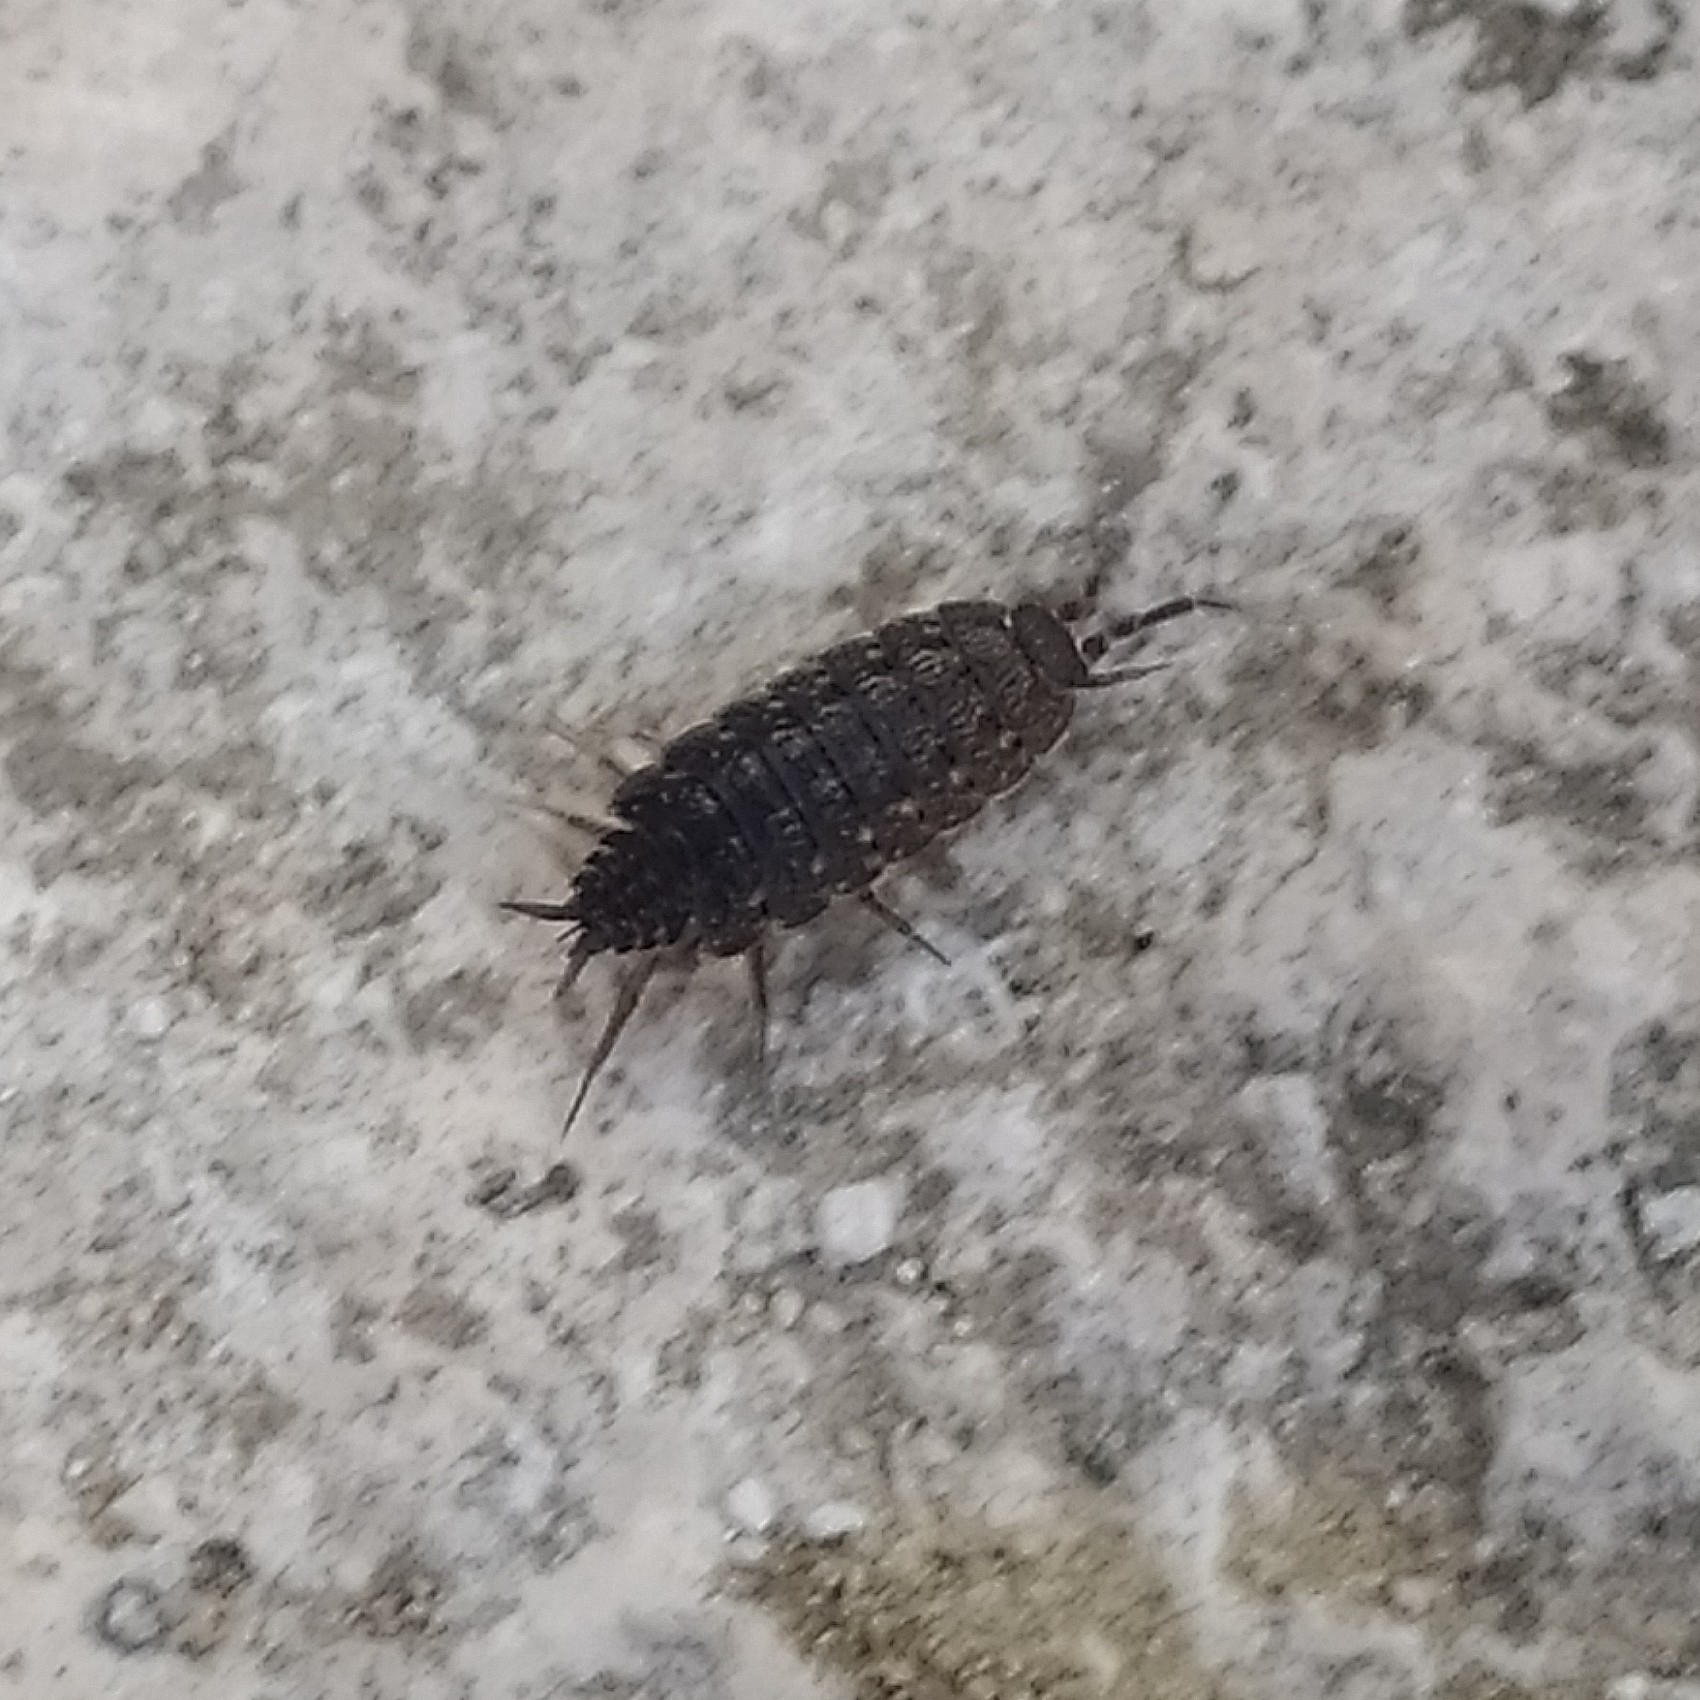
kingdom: Animalia
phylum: Arthropoda
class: Malacostraca
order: Isopoda
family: Agnaridae
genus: Orthometopon
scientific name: Orthometopon
